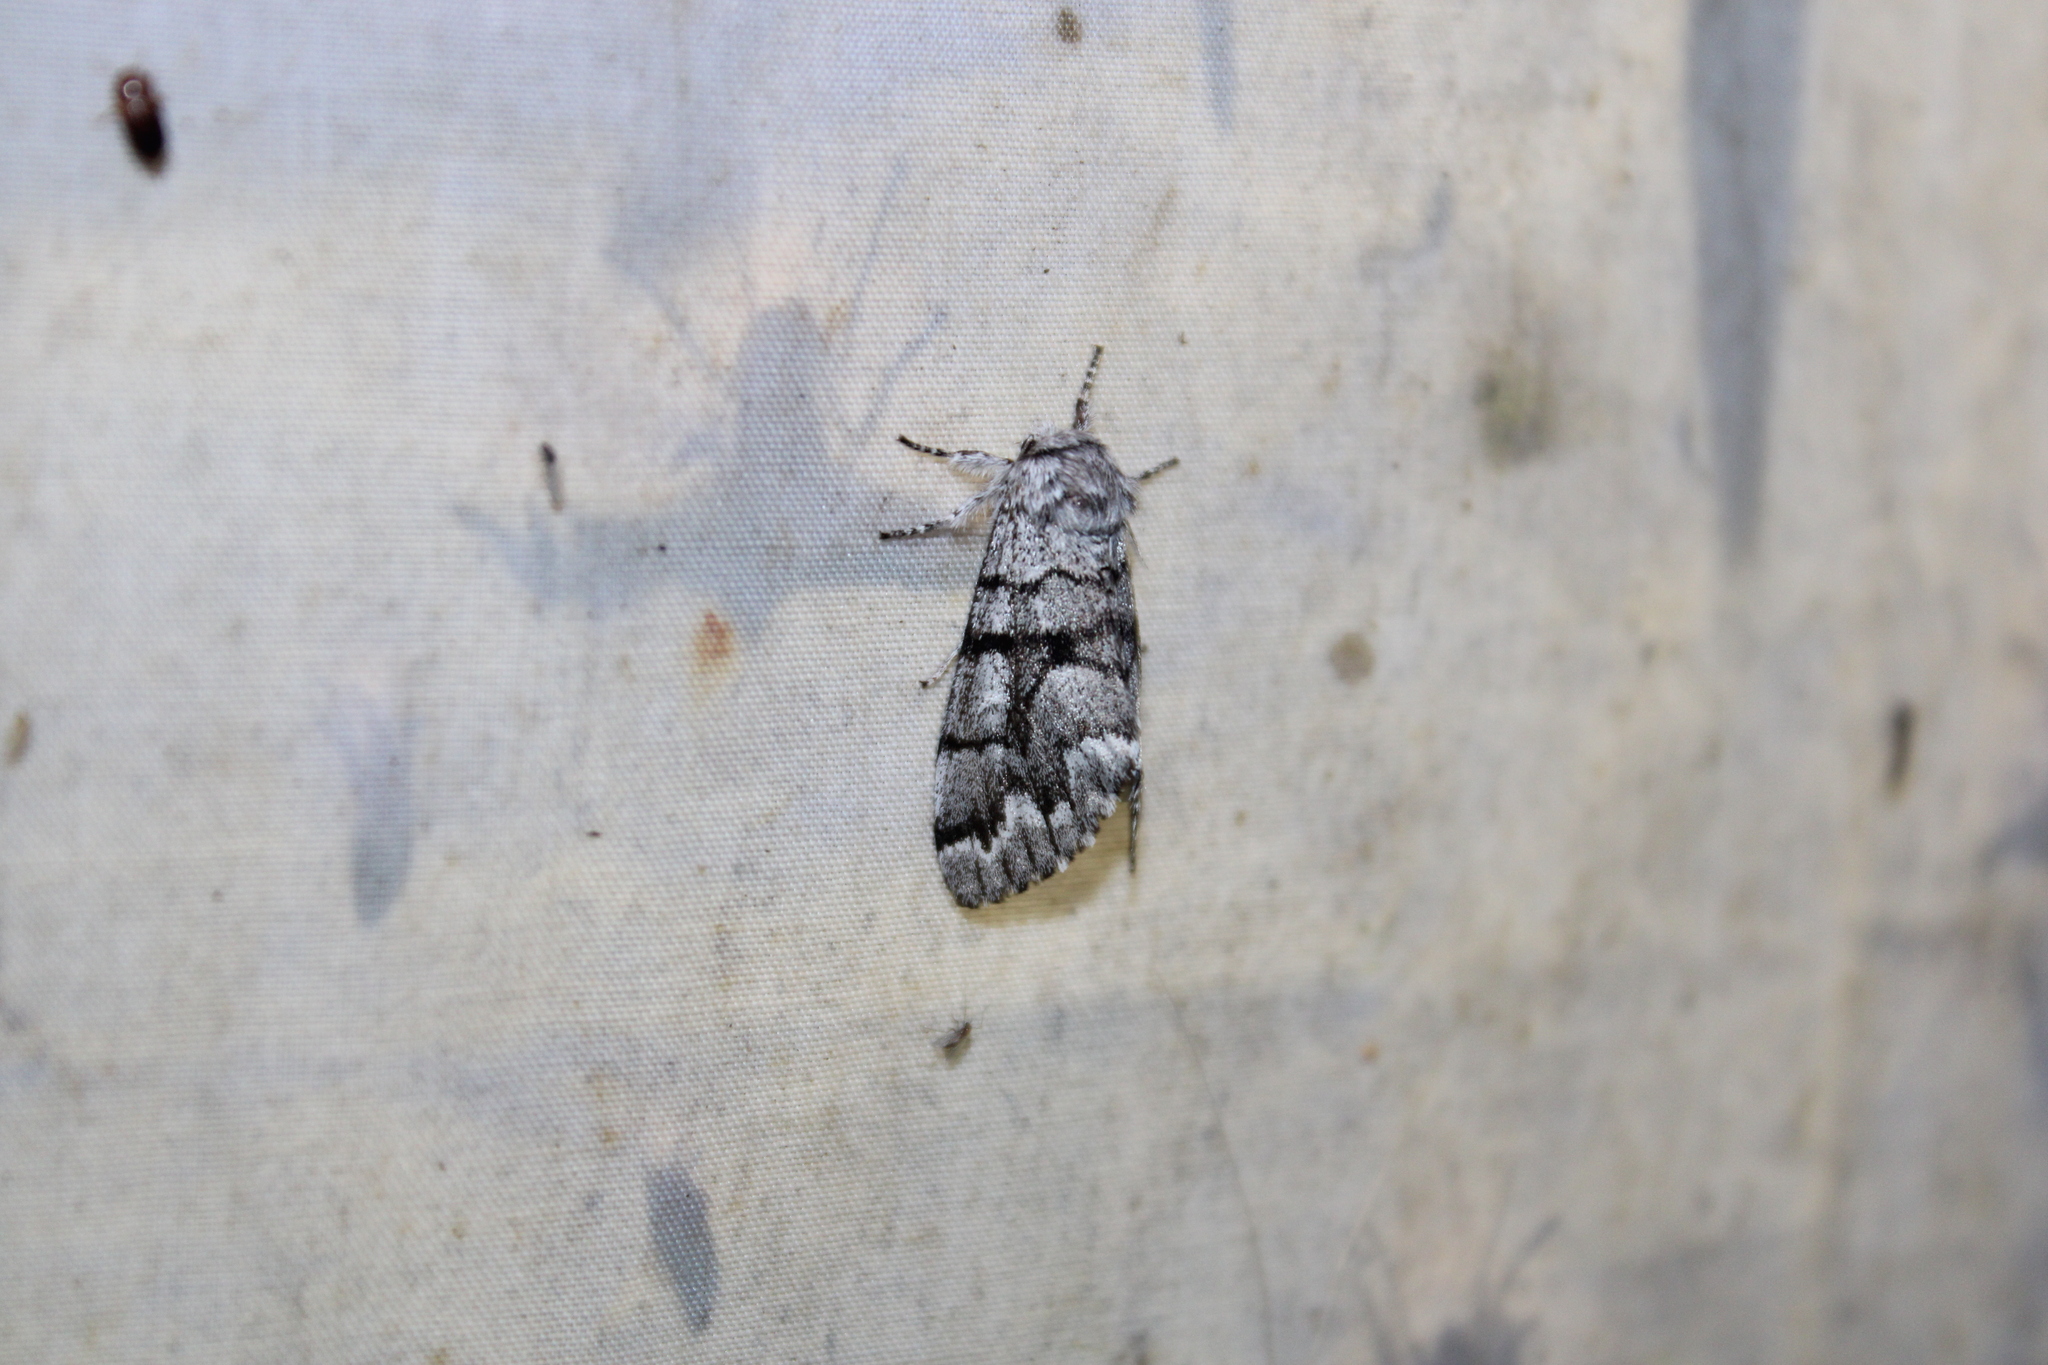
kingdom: Animalia
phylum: Arthropoda
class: Insecta
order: Lepidoptera
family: Noctuidae
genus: Panthea
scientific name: Panthea furcilla
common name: Eastern panthea moth
